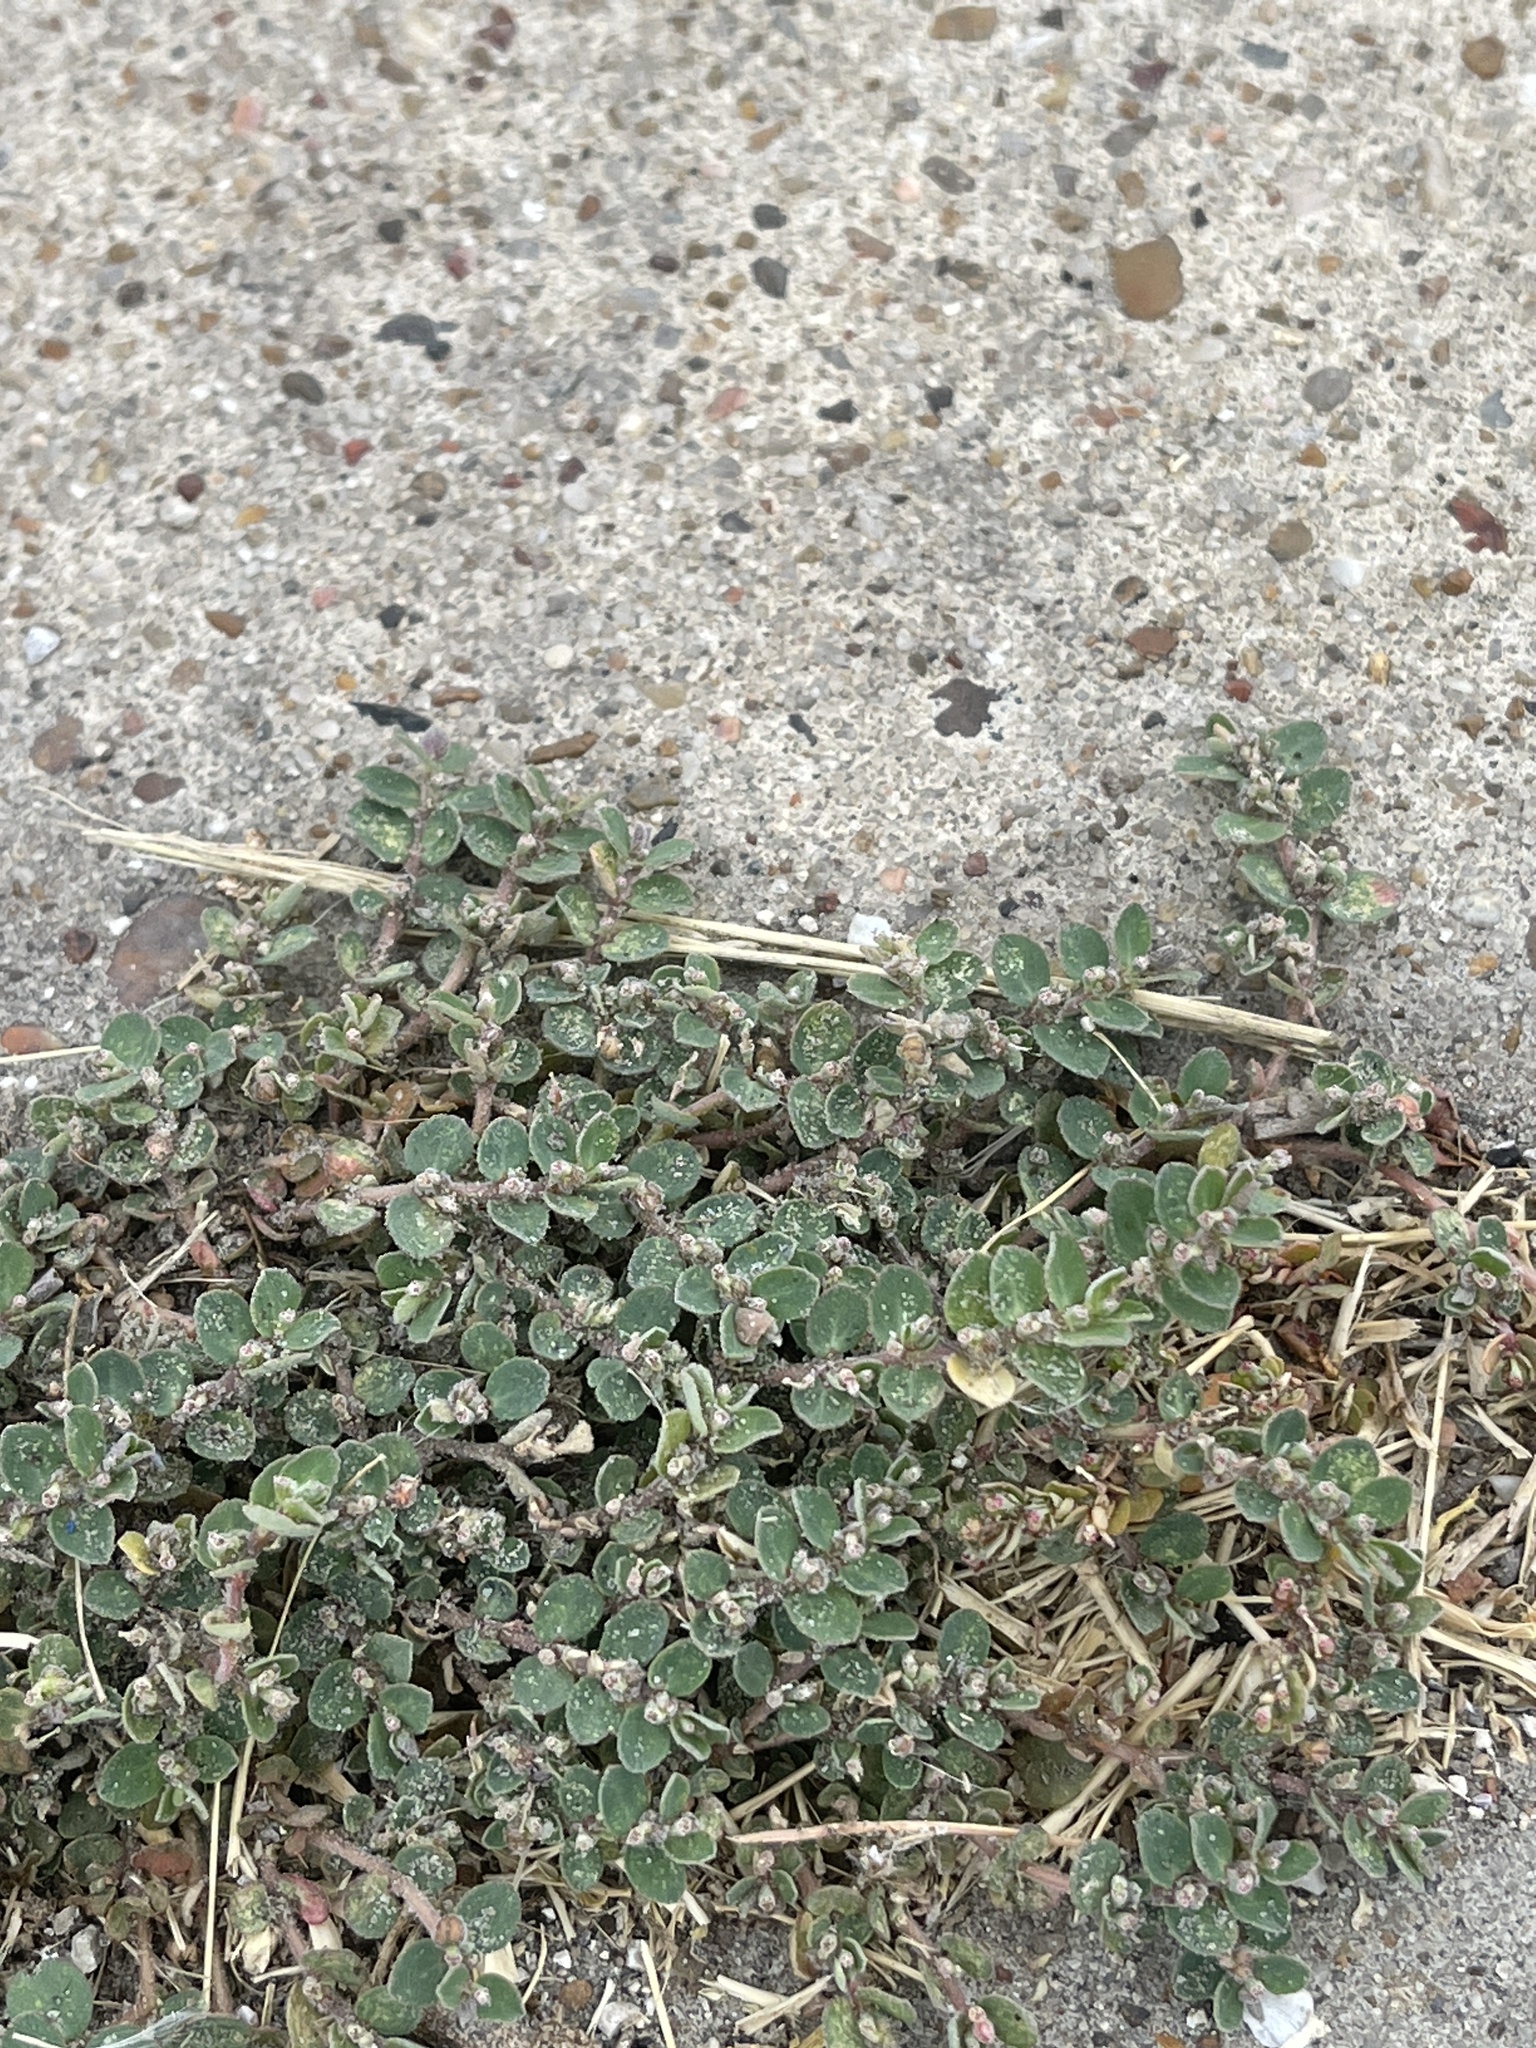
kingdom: Plantae
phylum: Tracheophyta
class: Magnoliopsida
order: Malpighiales
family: Euphorbiaceae
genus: Euphorbia
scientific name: Euphorbia prostrata
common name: Prostrate sandmat
